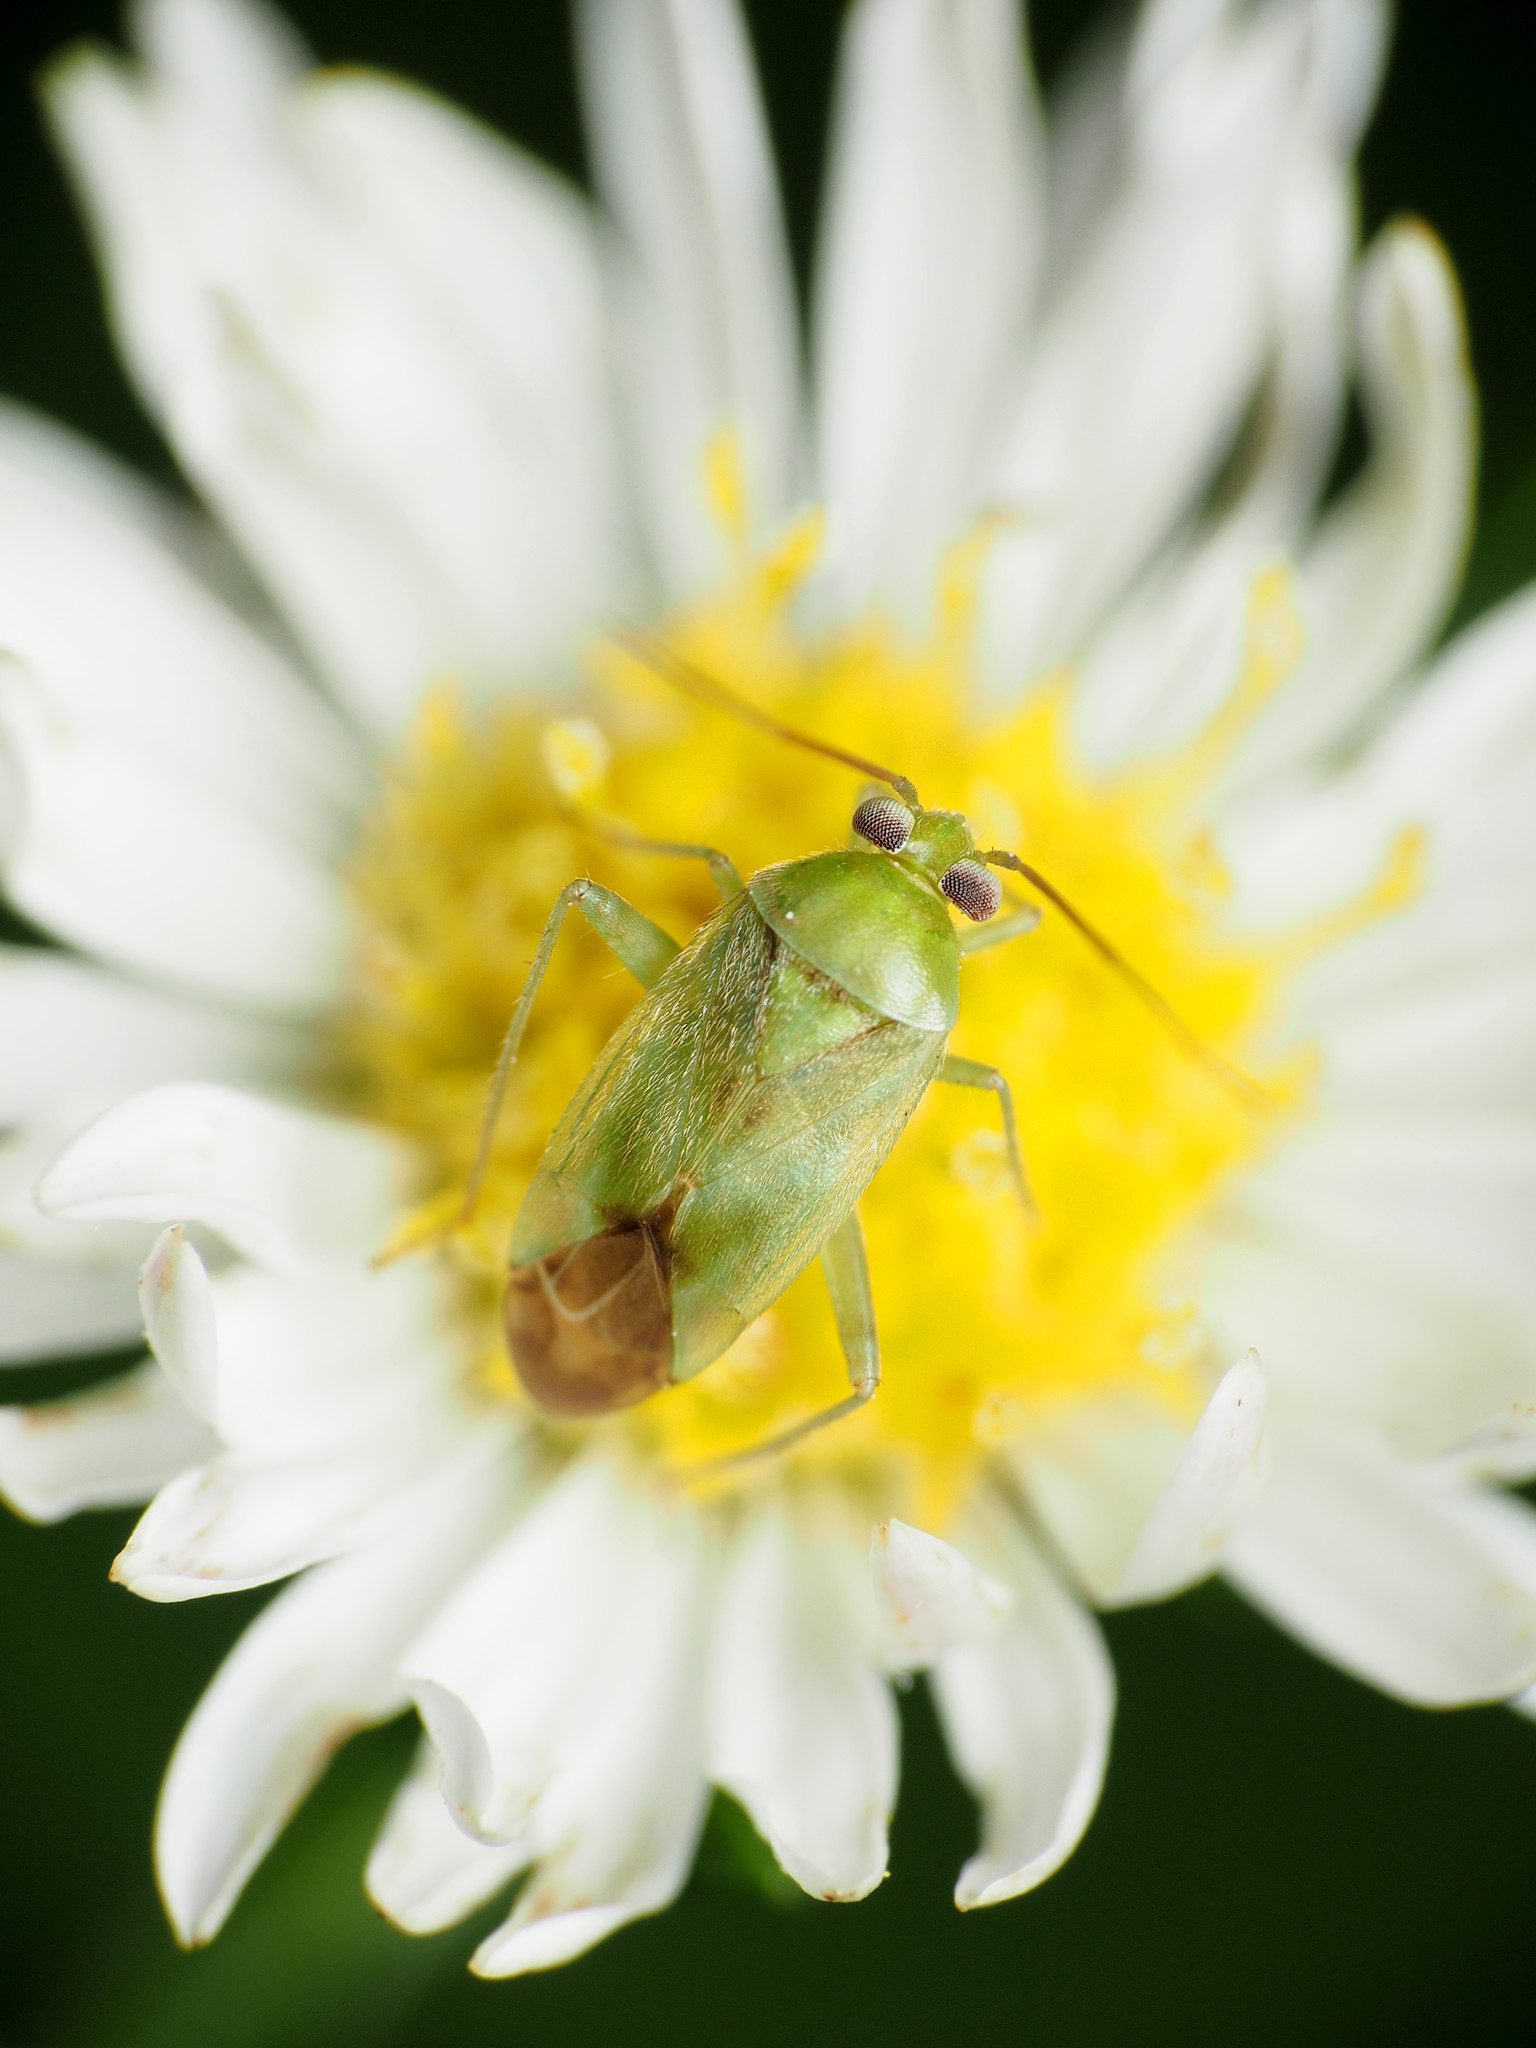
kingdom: Animalia
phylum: Arthropoda
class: Insecta
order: Hemiptera
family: Miridae
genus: Taylorilygus
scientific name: Taylorilygus apicalis
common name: Plant bug
